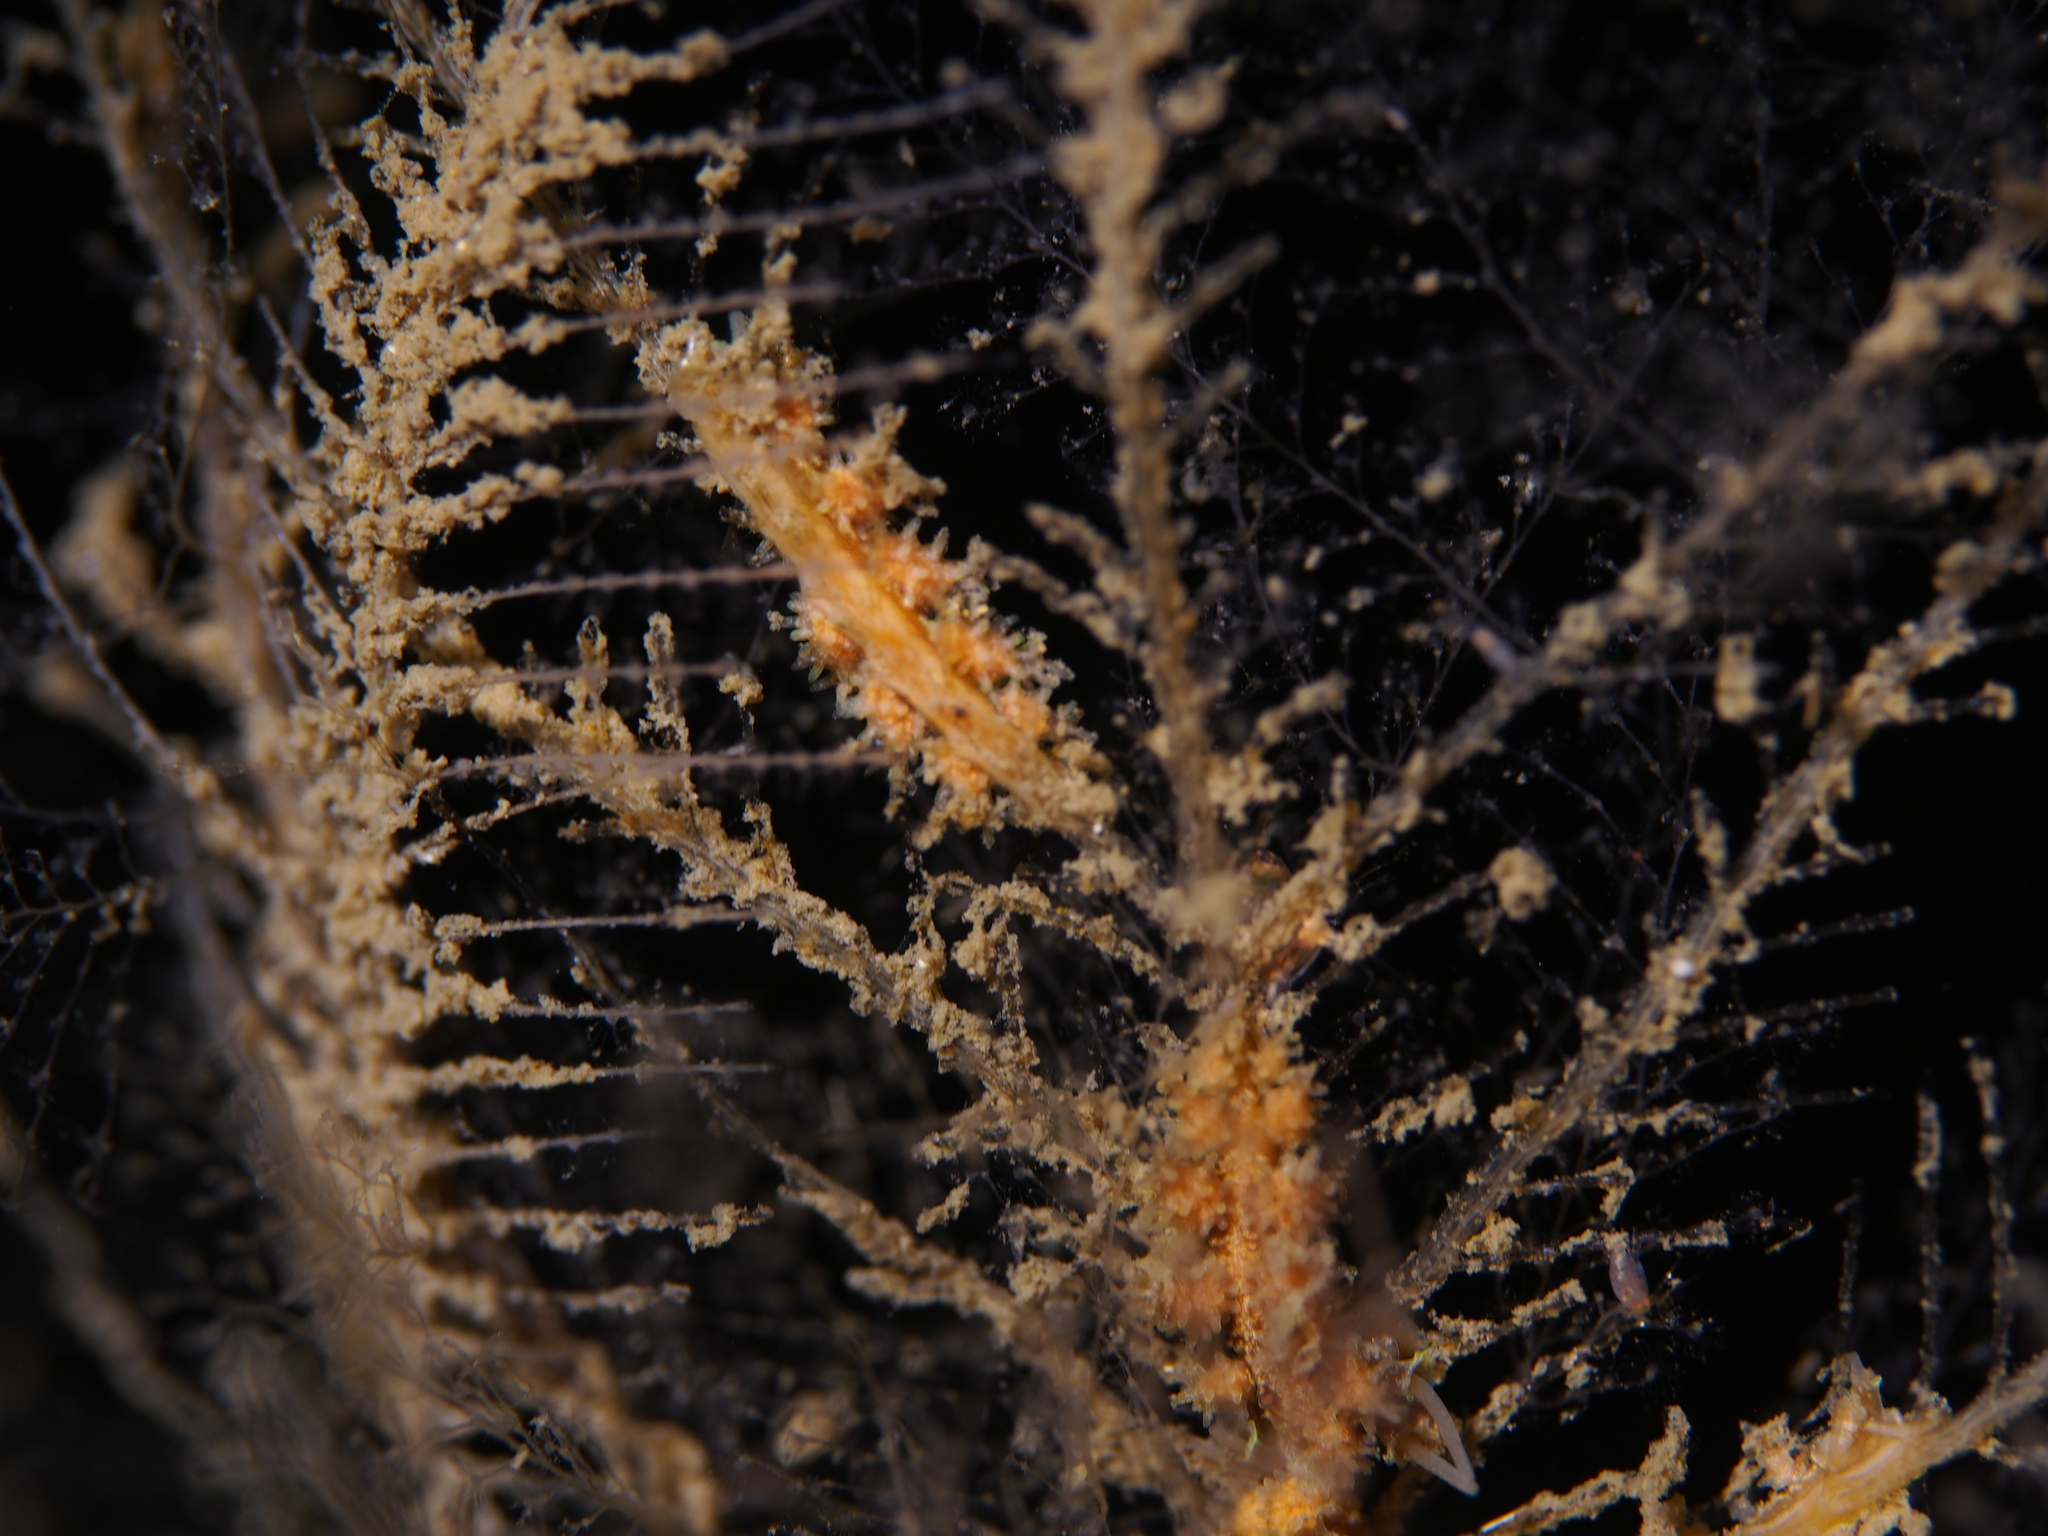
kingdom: Animalia
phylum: Mollusca
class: Gastropoda
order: Nudibranchia
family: Dotidae
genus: Doto
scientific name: Doto hystrix
